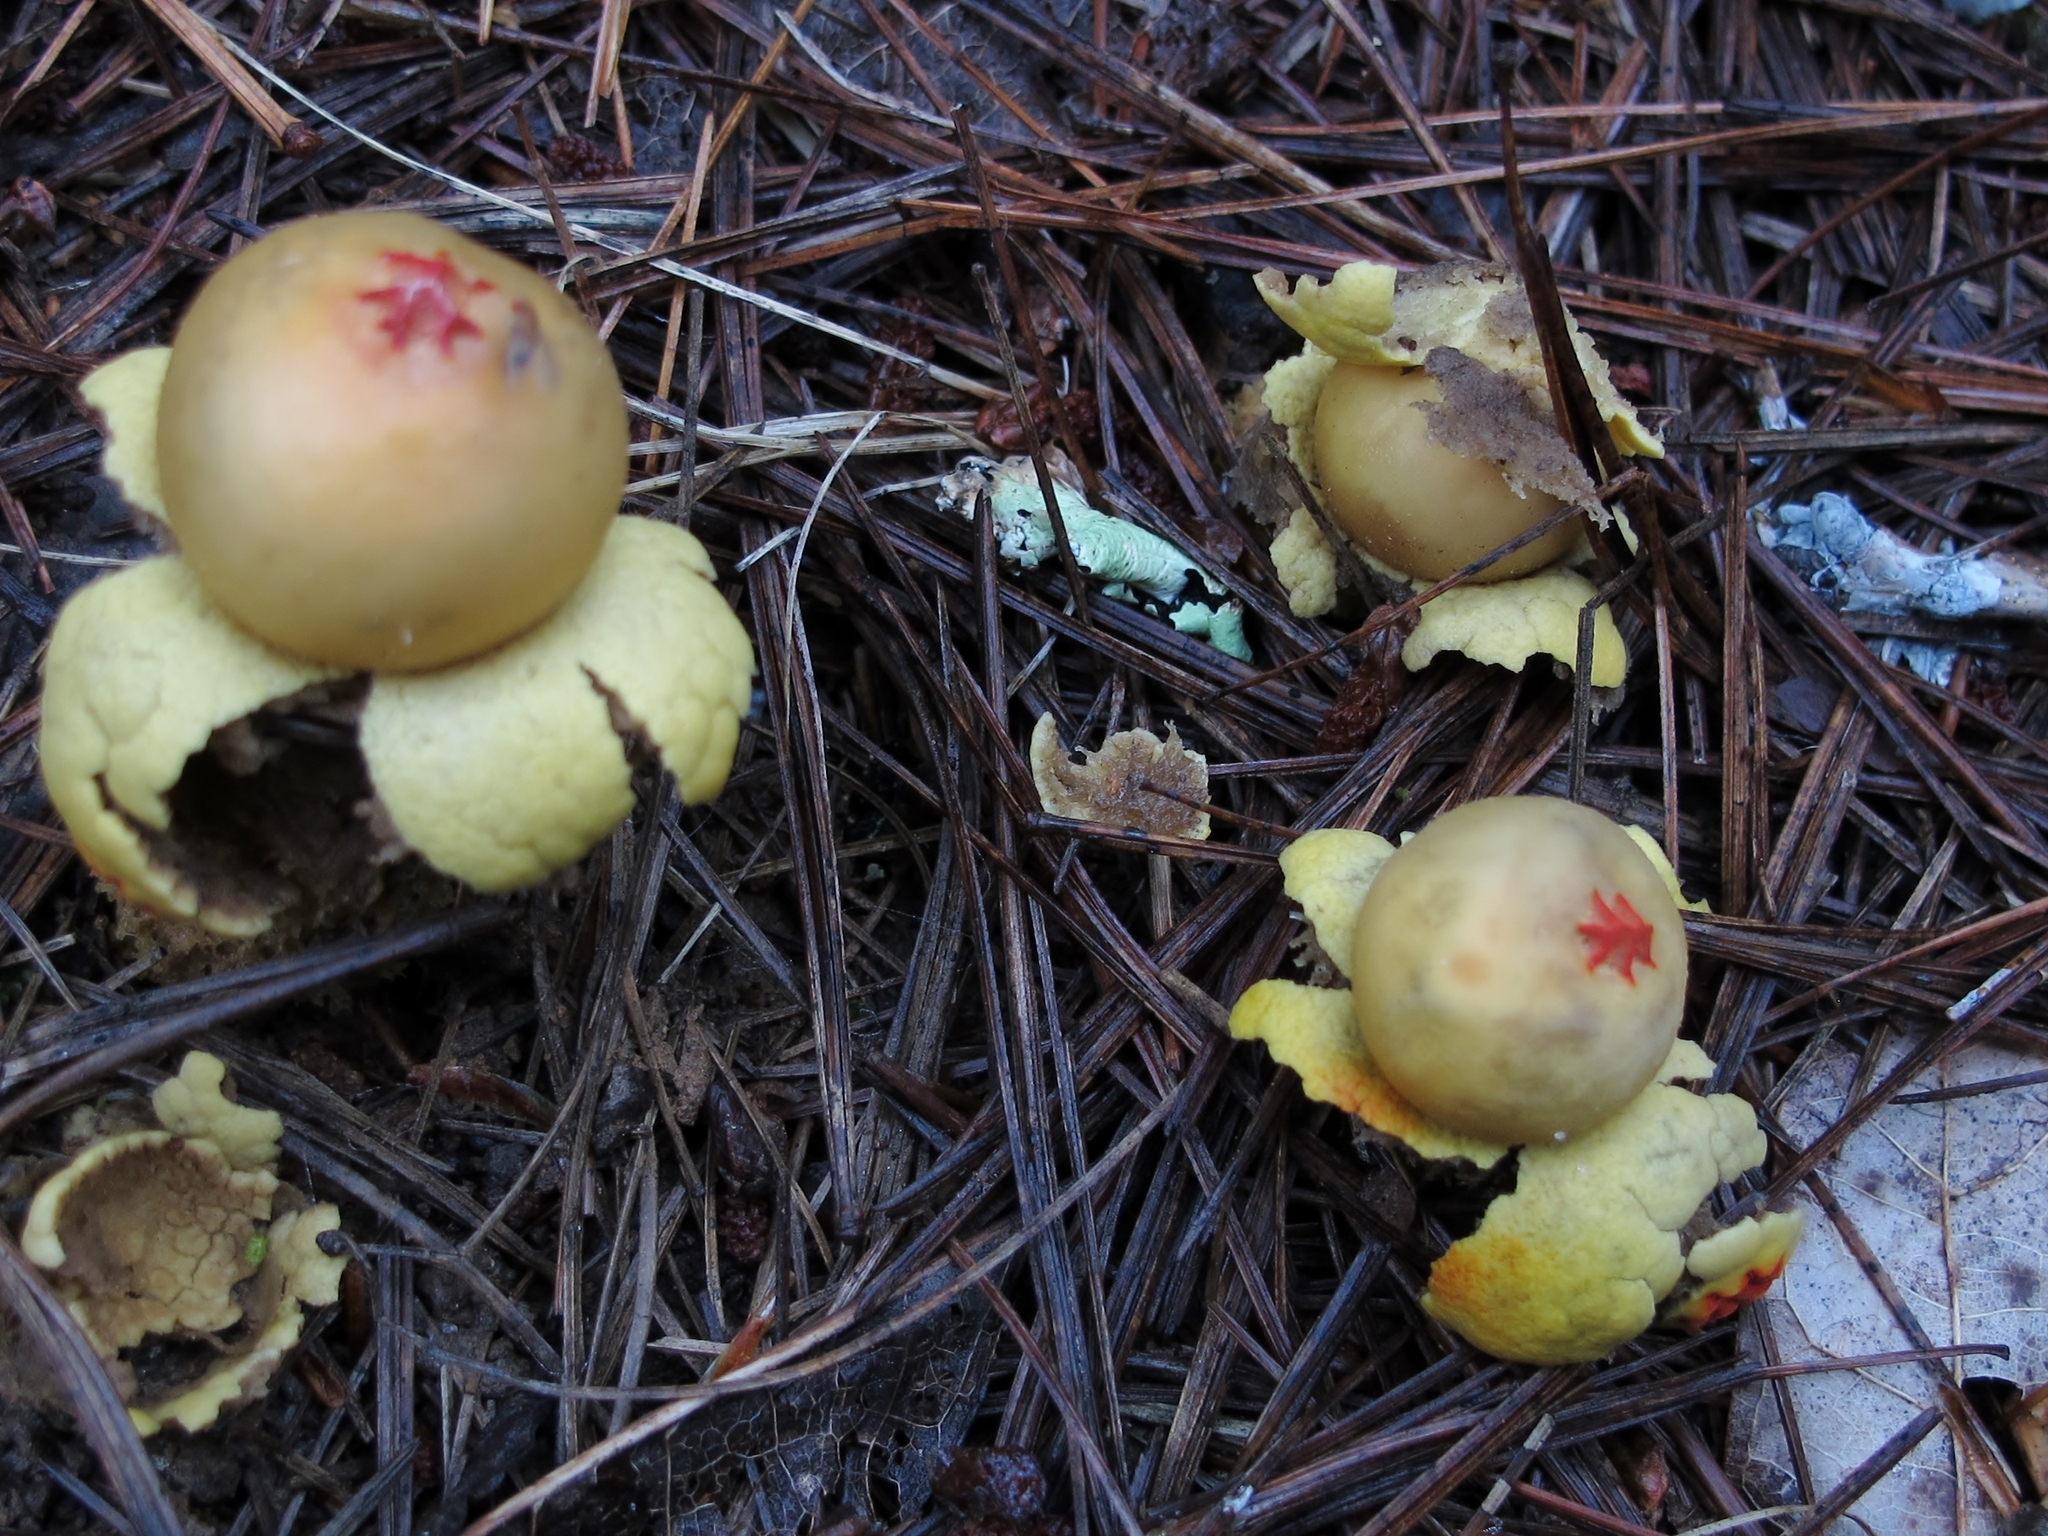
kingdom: Fungi
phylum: Basidiomycota
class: Agaricomycetes
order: Boletales
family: Calostomataceae
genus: Calostoma
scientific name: Calostoma lutescens
